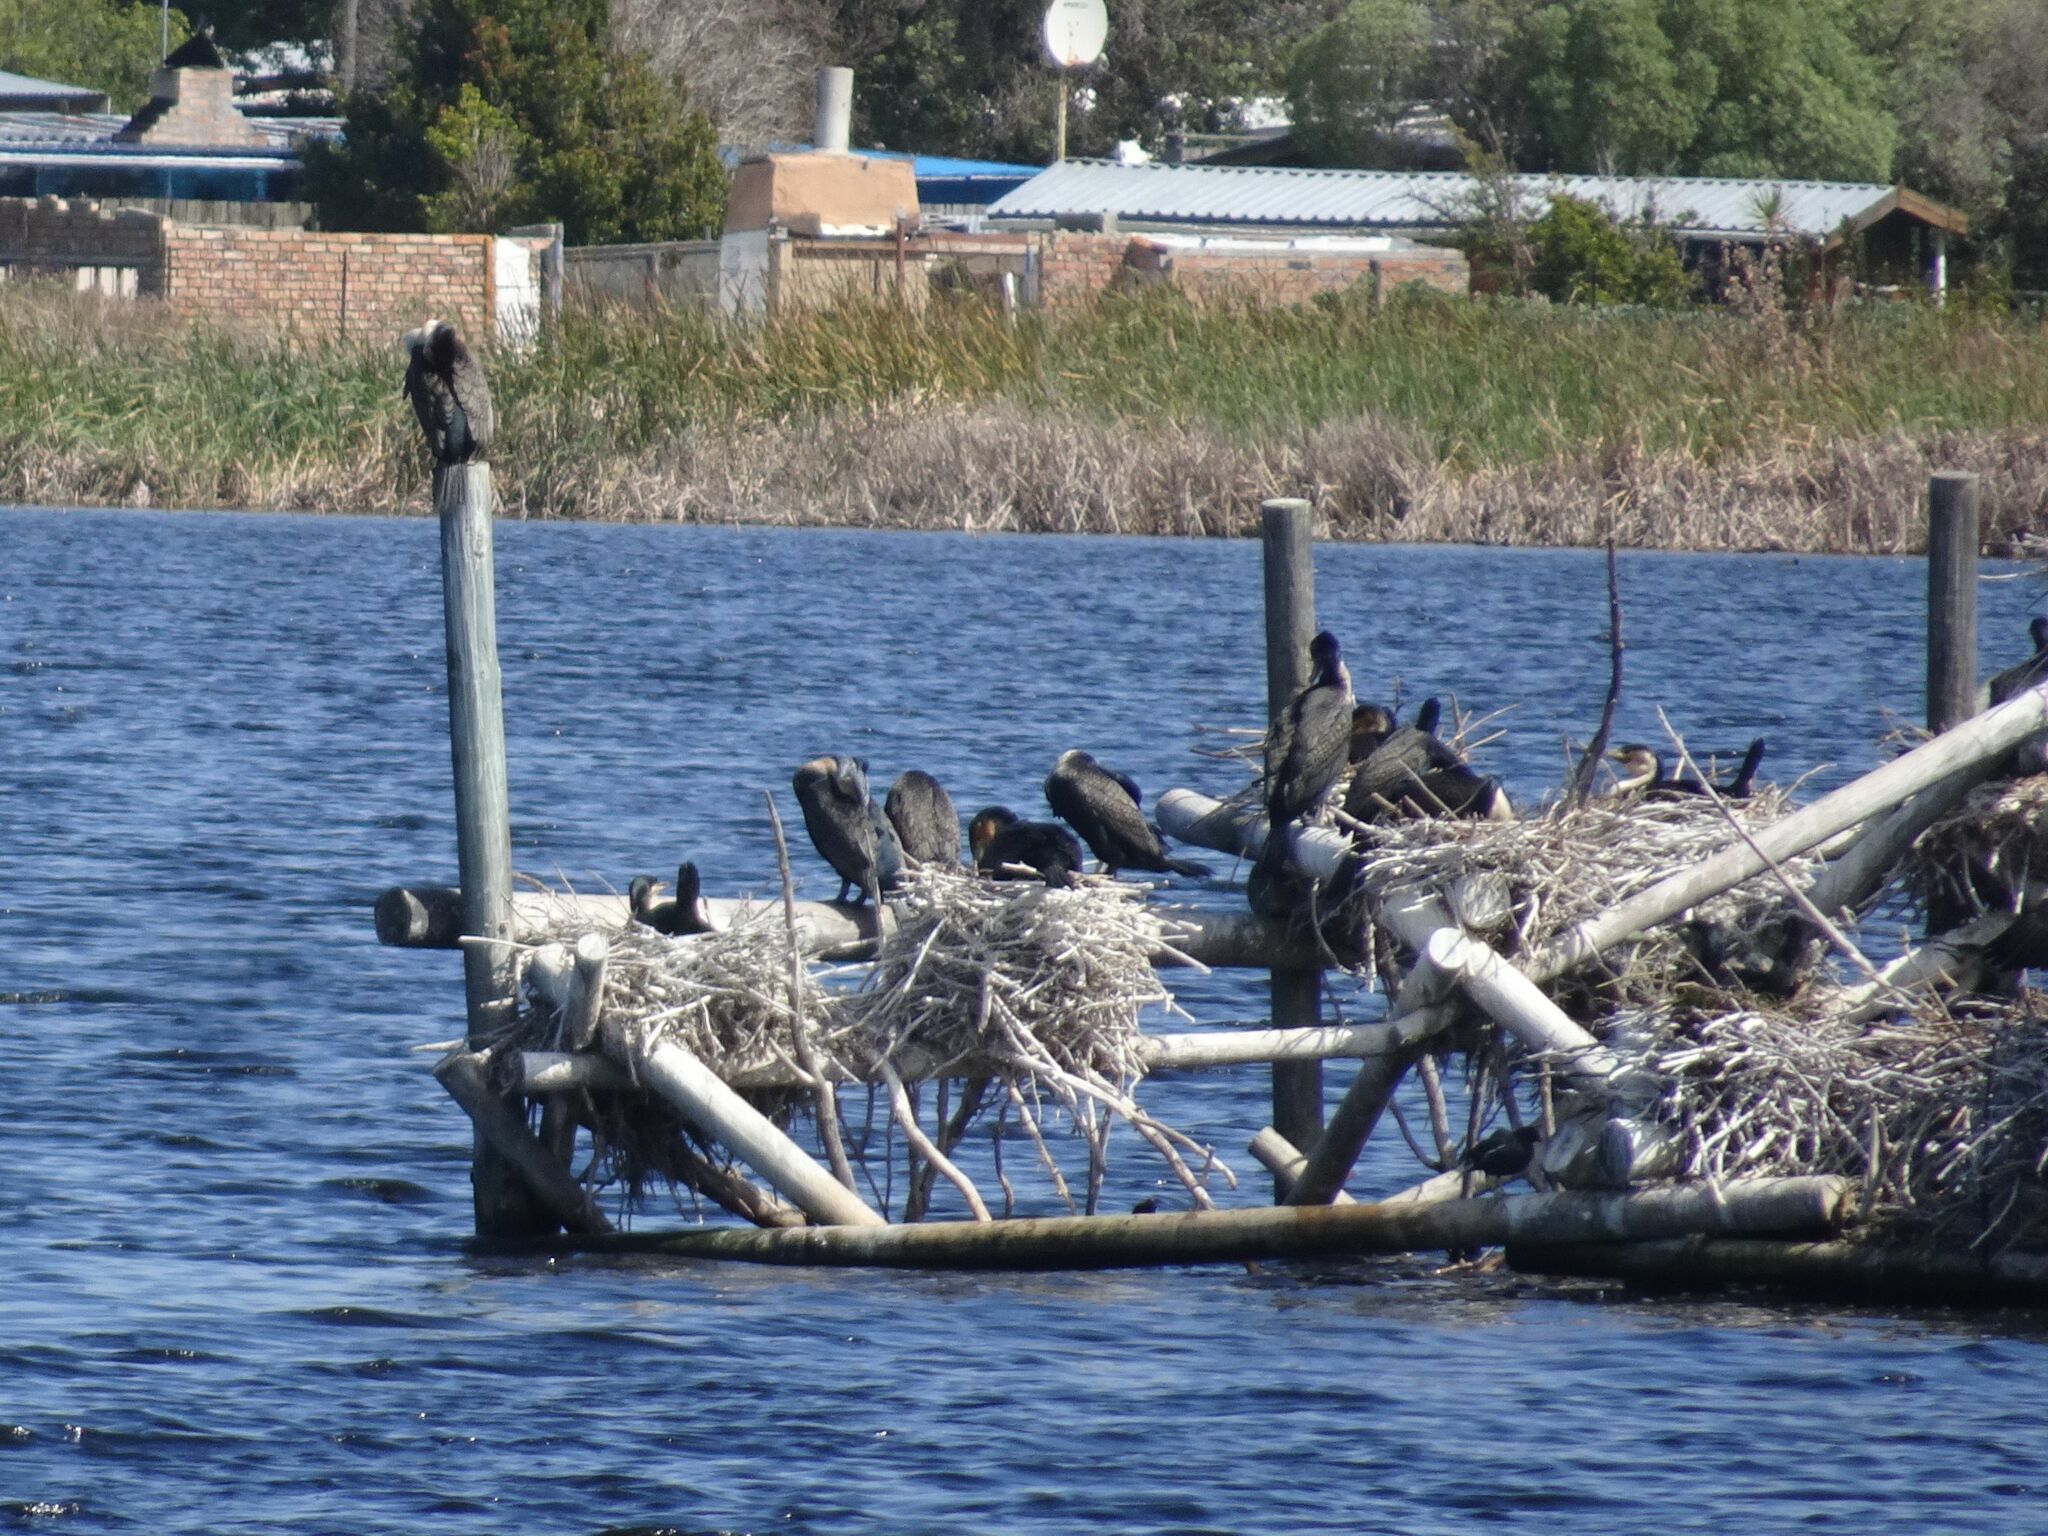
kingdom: Animalia
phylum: Chordata
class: Aves
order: Suliformes
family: Phalacrocoracidae
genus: Phalacrocorax
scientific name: Phalacrocorax carbo
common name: Great cormorant
